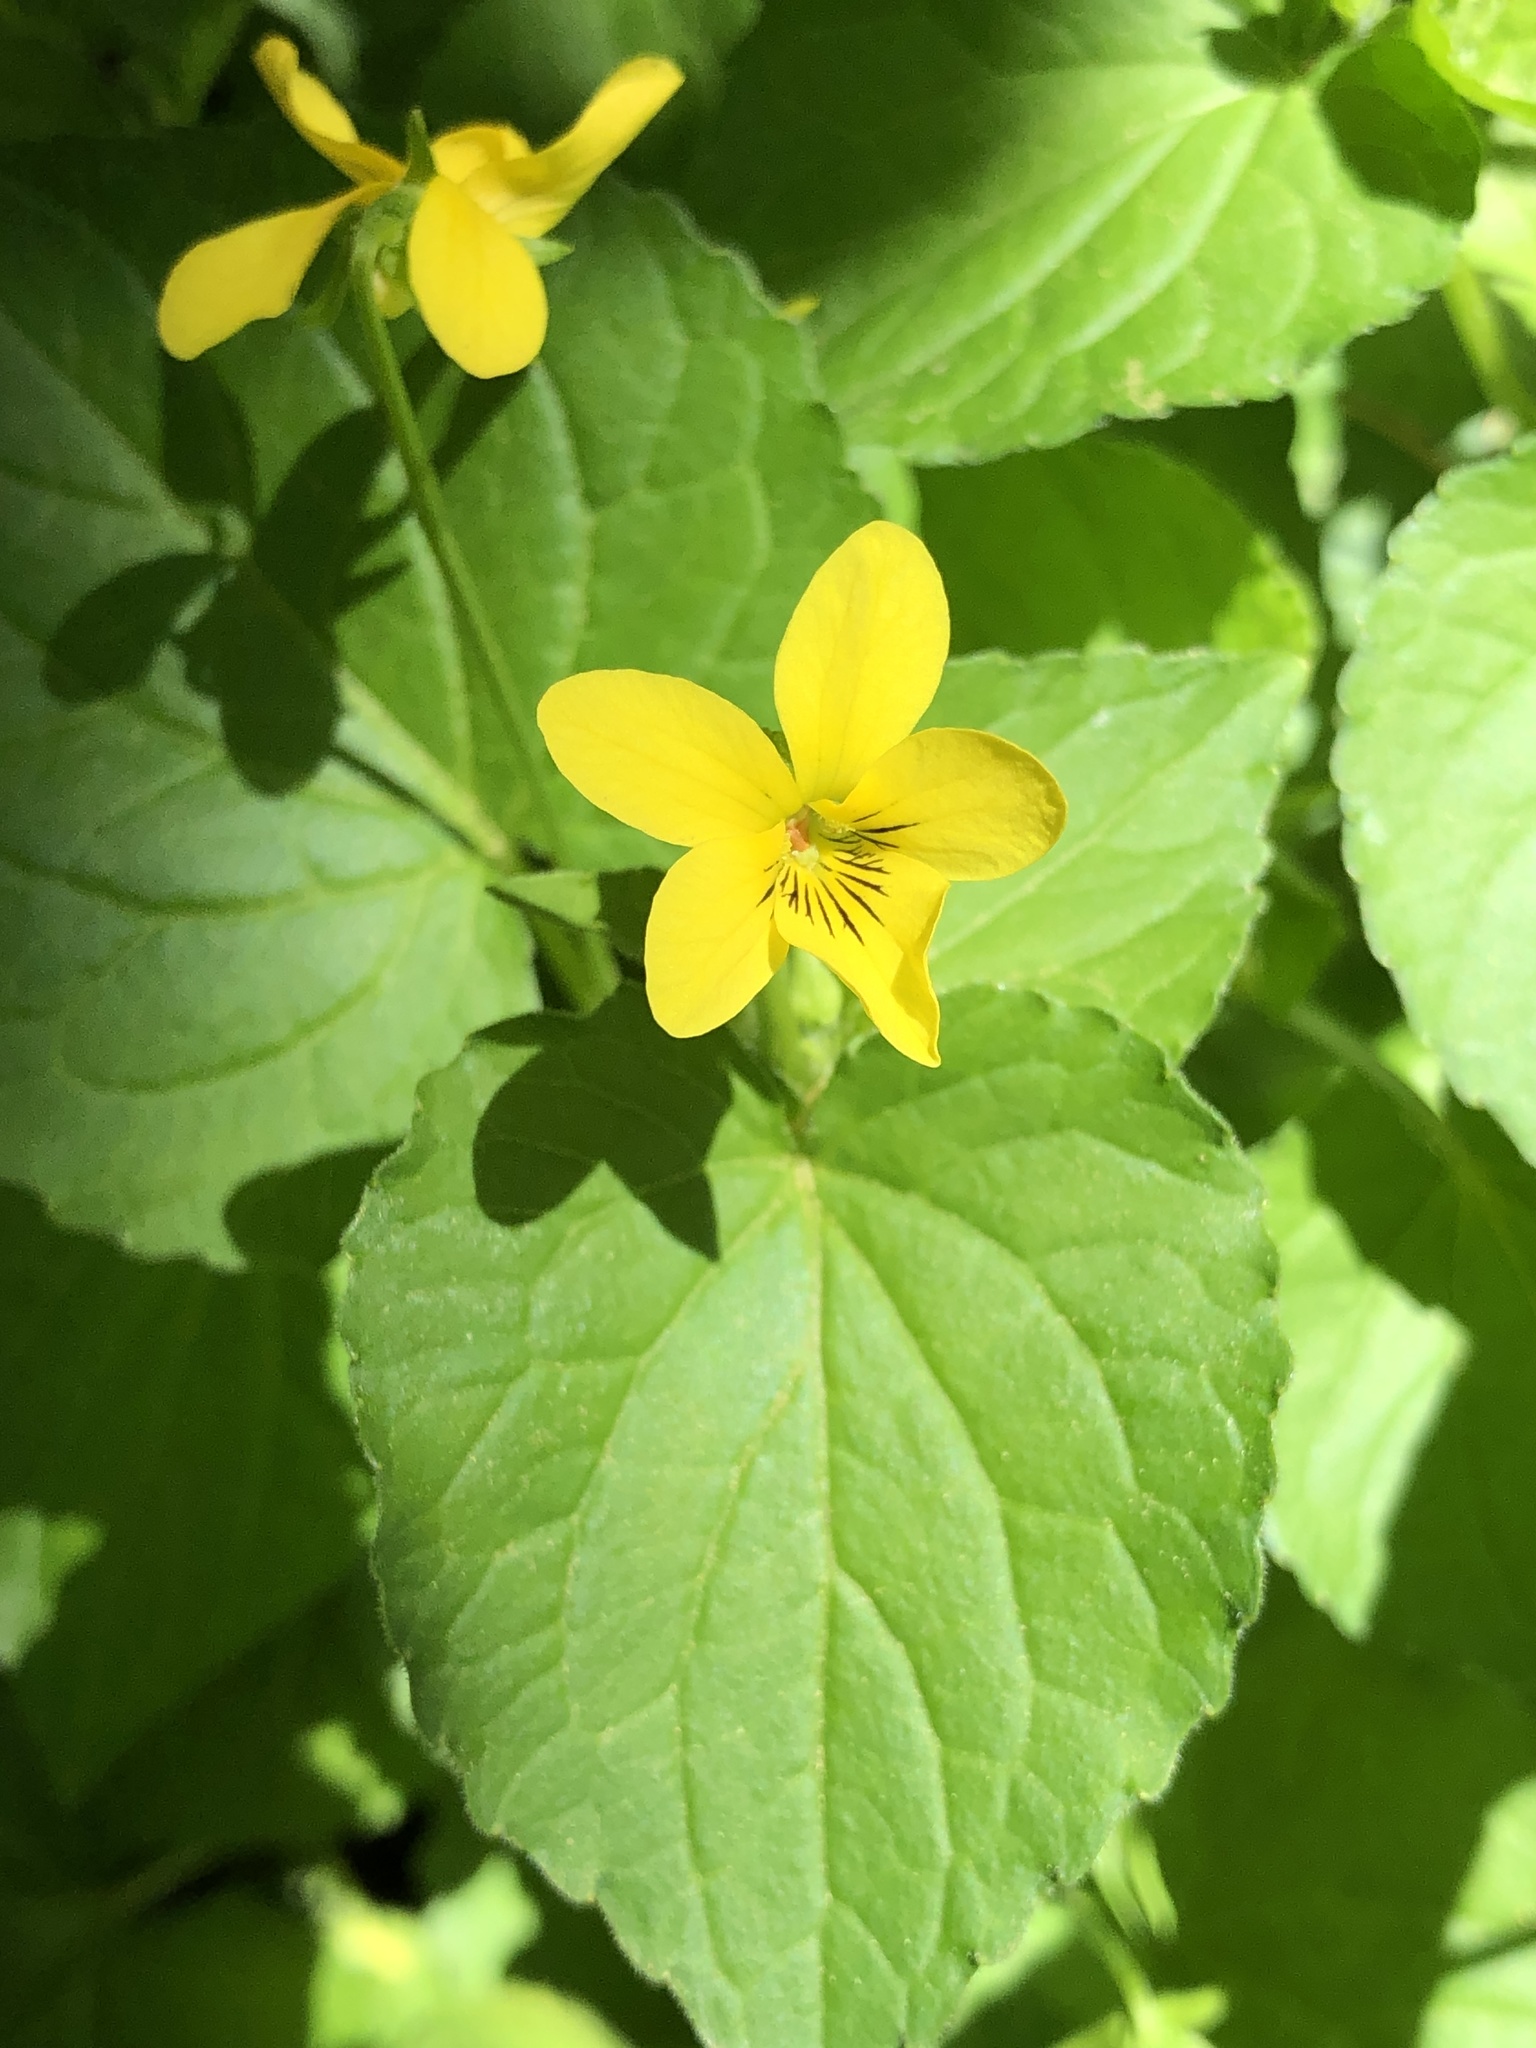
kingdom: Plantae
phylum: Tracheophyta
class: Magnoliopsida
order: Malpighiales
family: Violaceae
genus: Viola
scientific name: Viola glabella
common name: Stream violet
